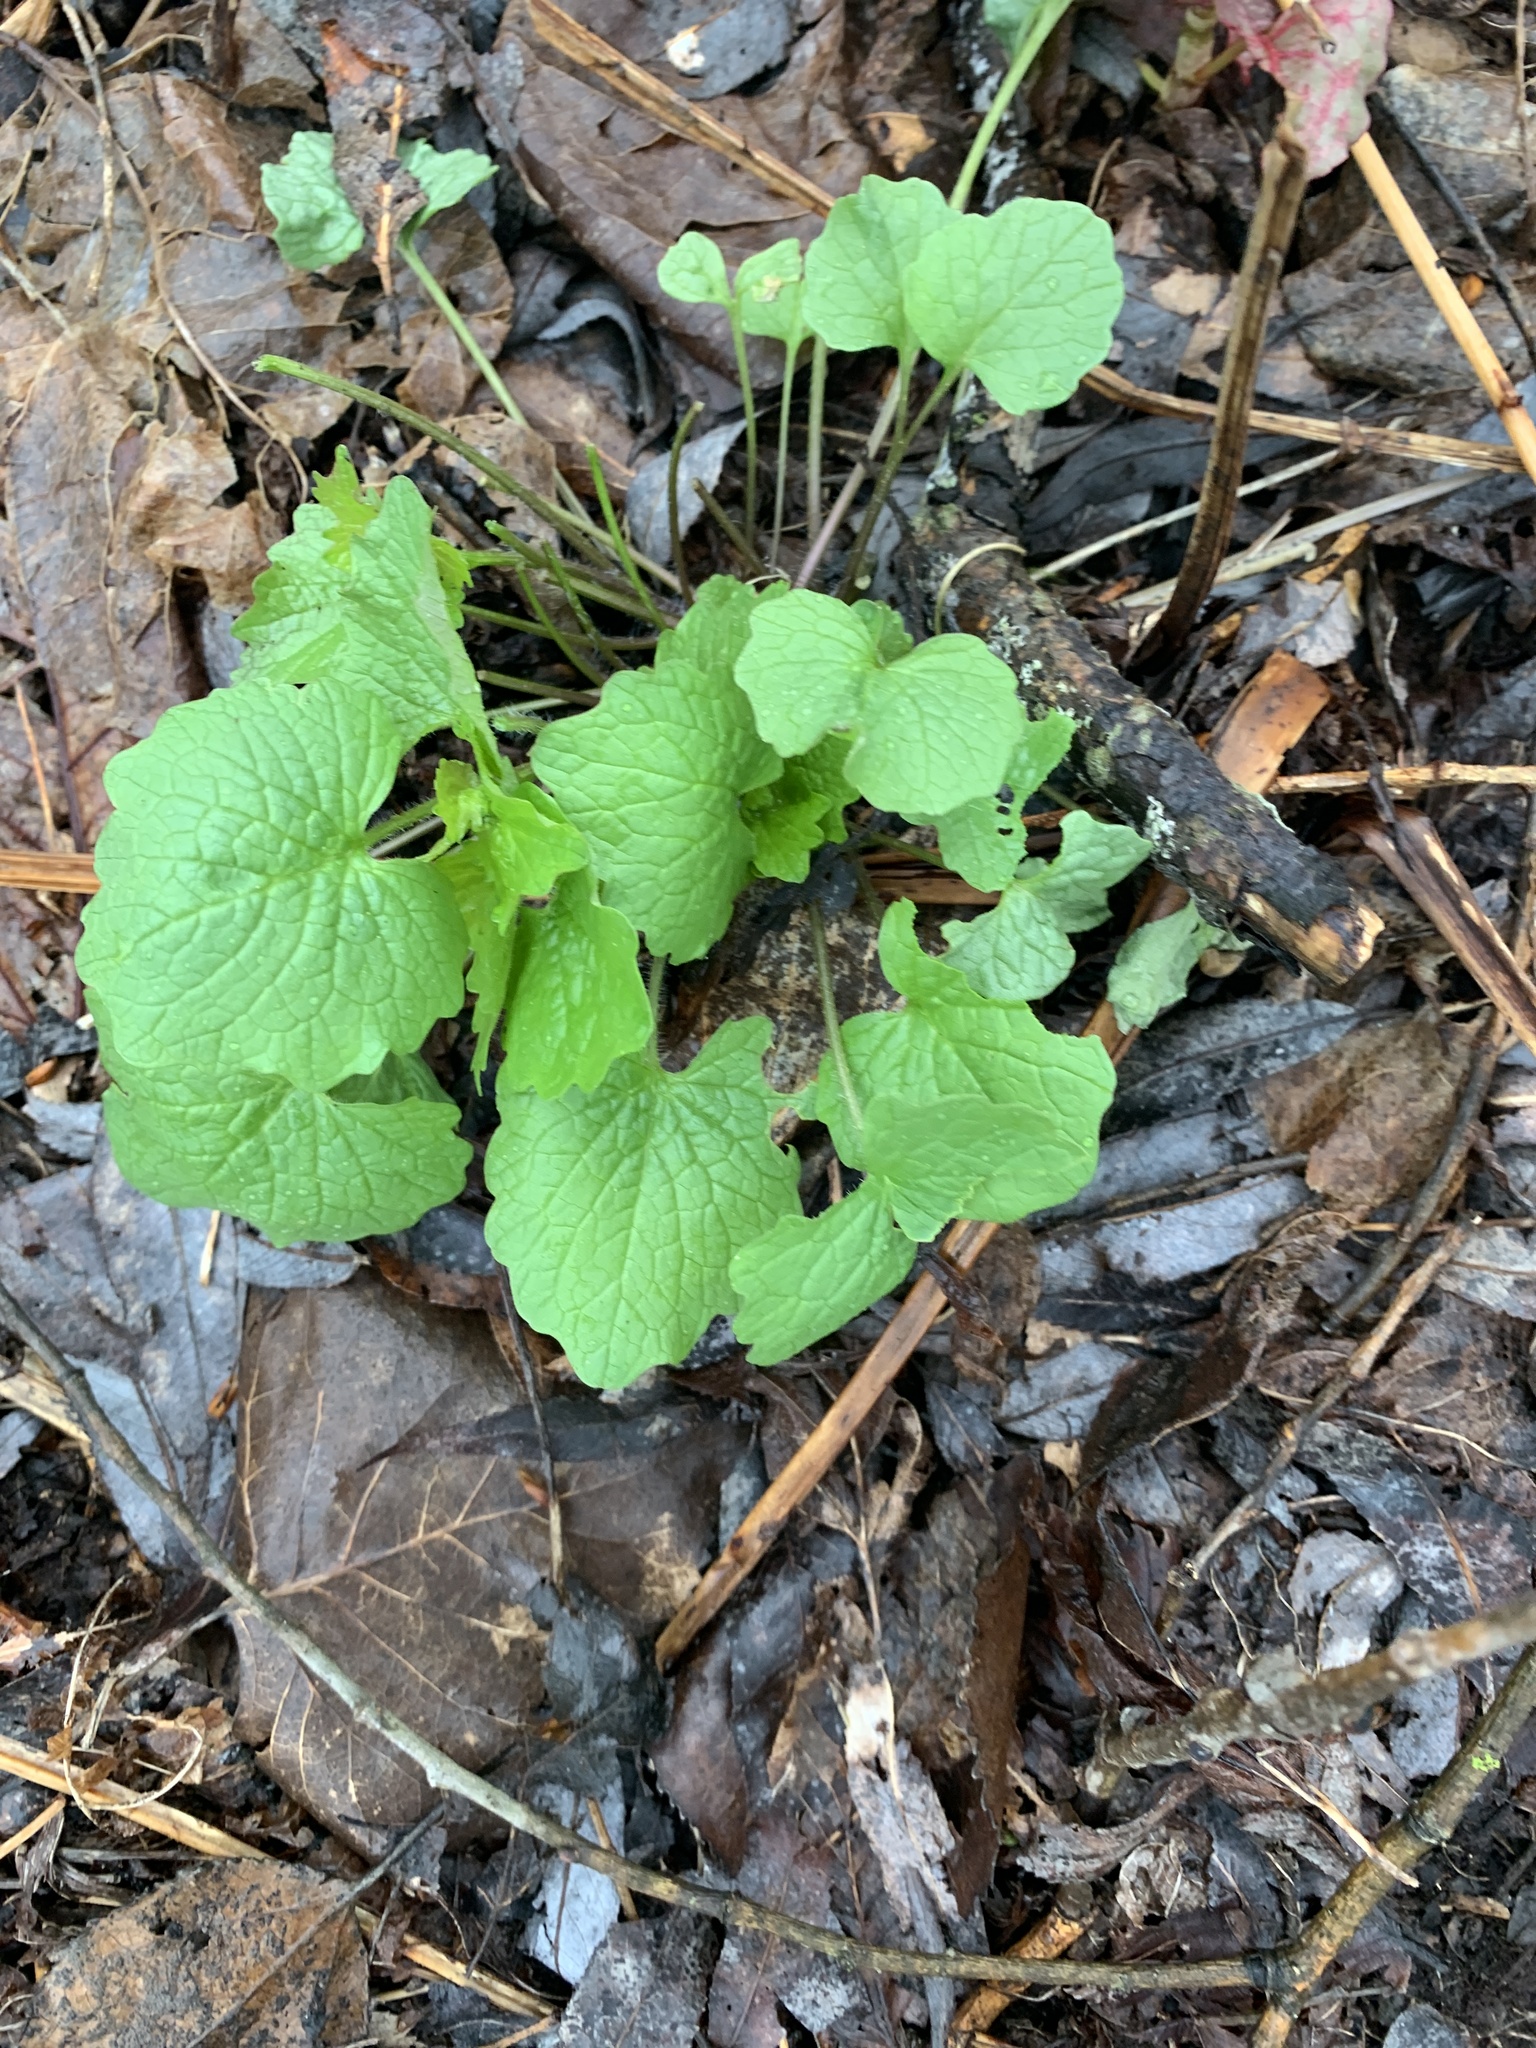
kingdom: Plantae
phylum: Tracheophyta
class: Magnoliopsida
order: Brassicales
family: Brassicaceae
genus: Alliaria
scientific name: Alliaria petiolata
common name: Garlic mustard
